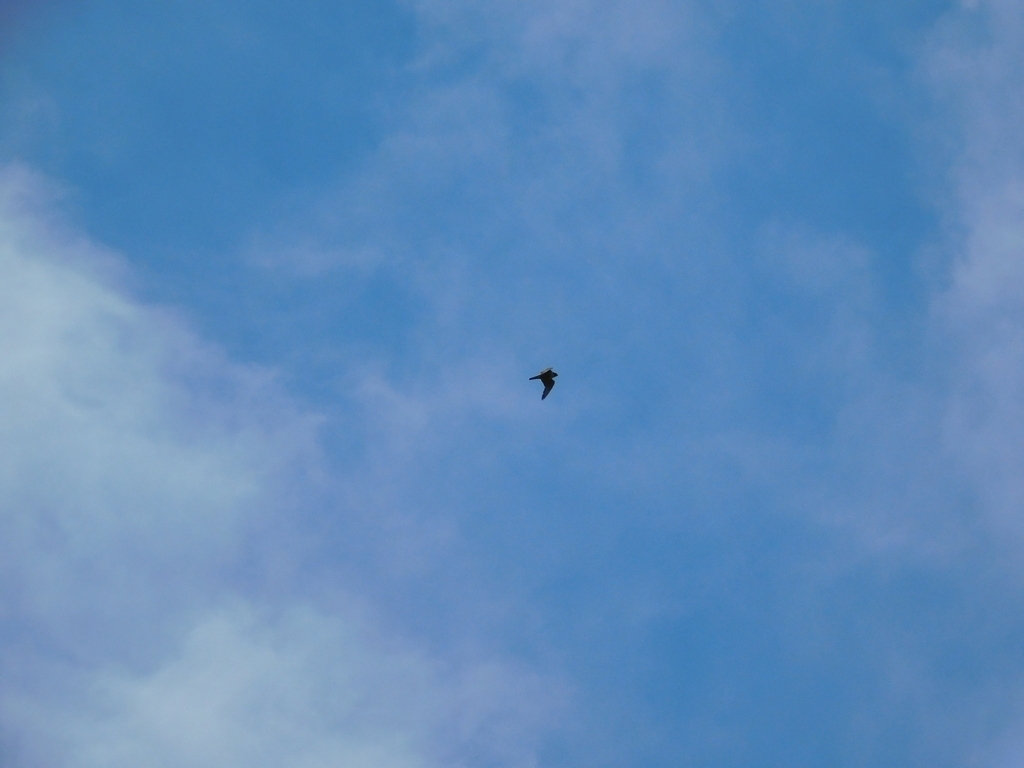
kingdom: Animalia
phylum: Chordata
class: Aves
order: Falconiformes
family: Falconidae
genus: Falco
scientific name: Falco peregrinus
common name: Peregrine falcon
